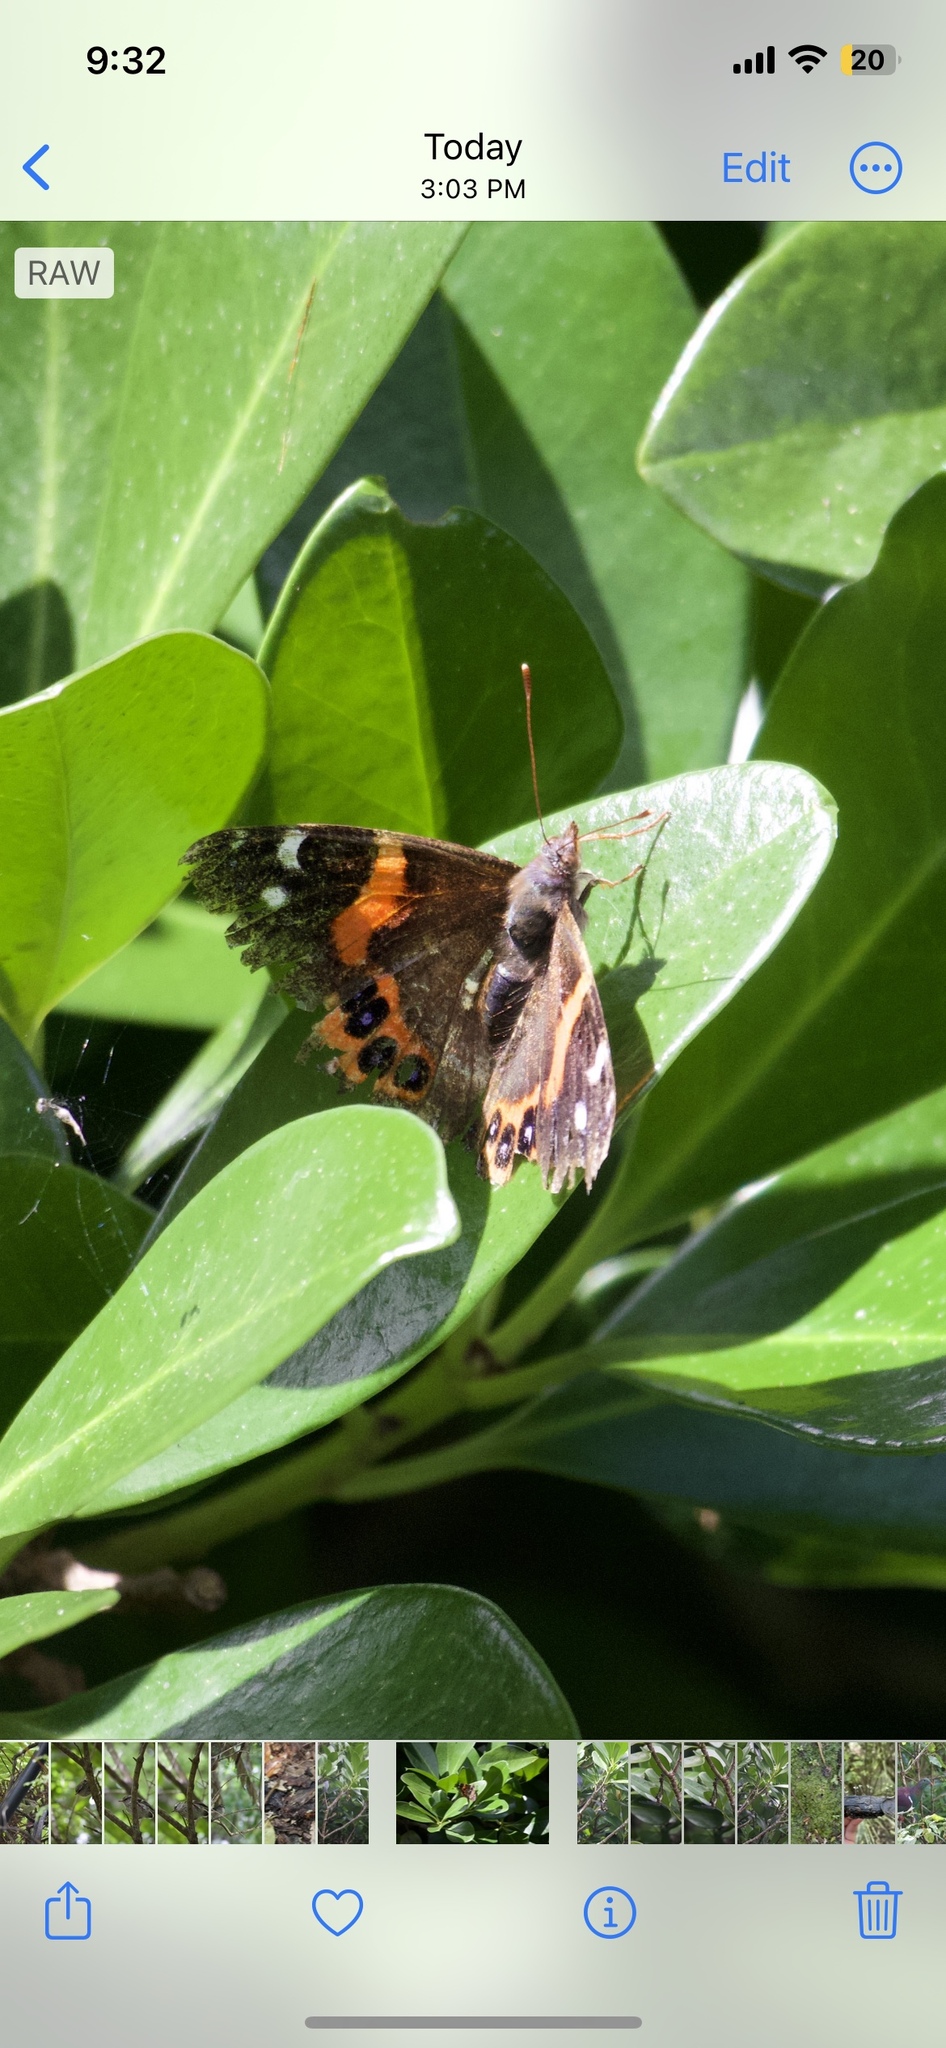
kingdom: Animalia
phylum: Arthropoda
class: Insecta
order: Lepidoptera
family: Nymphalidae
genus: Vanessa
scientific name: Vanessa gonerilla
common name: New zealand red admiral
